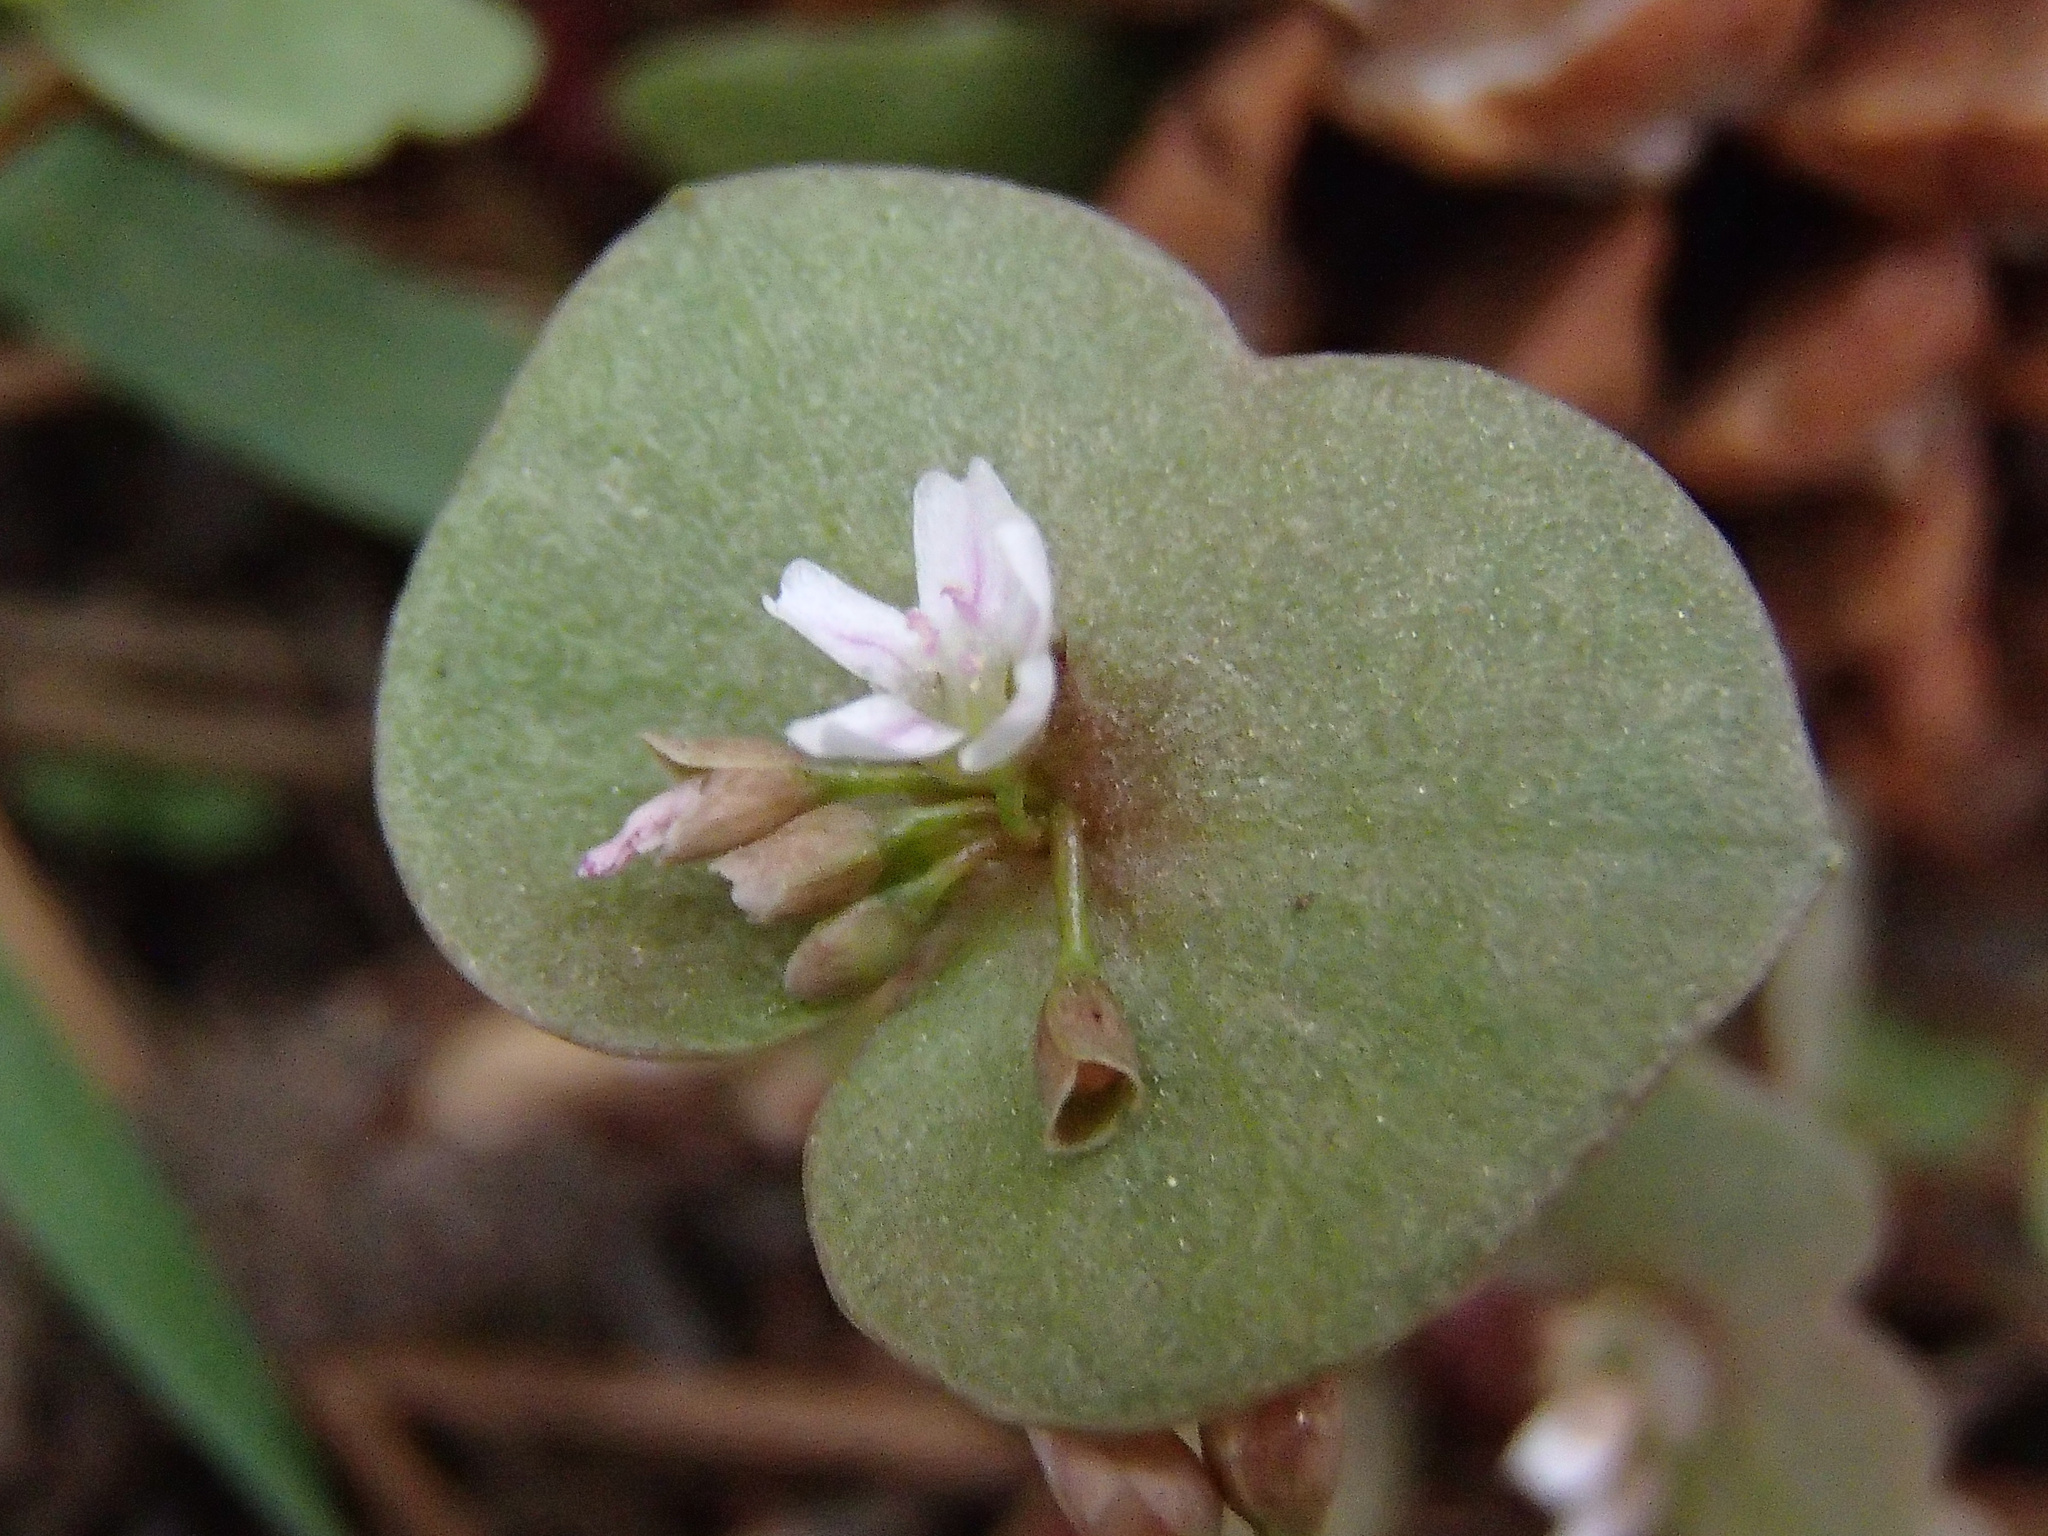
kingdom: Plantae
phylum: Tracheophyta
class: Magnoliopsida
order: Caryophyllales
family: Montiaceae
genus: Claytonia
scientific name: Claytonia rubra
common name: Erubescent miner's-lettuce
